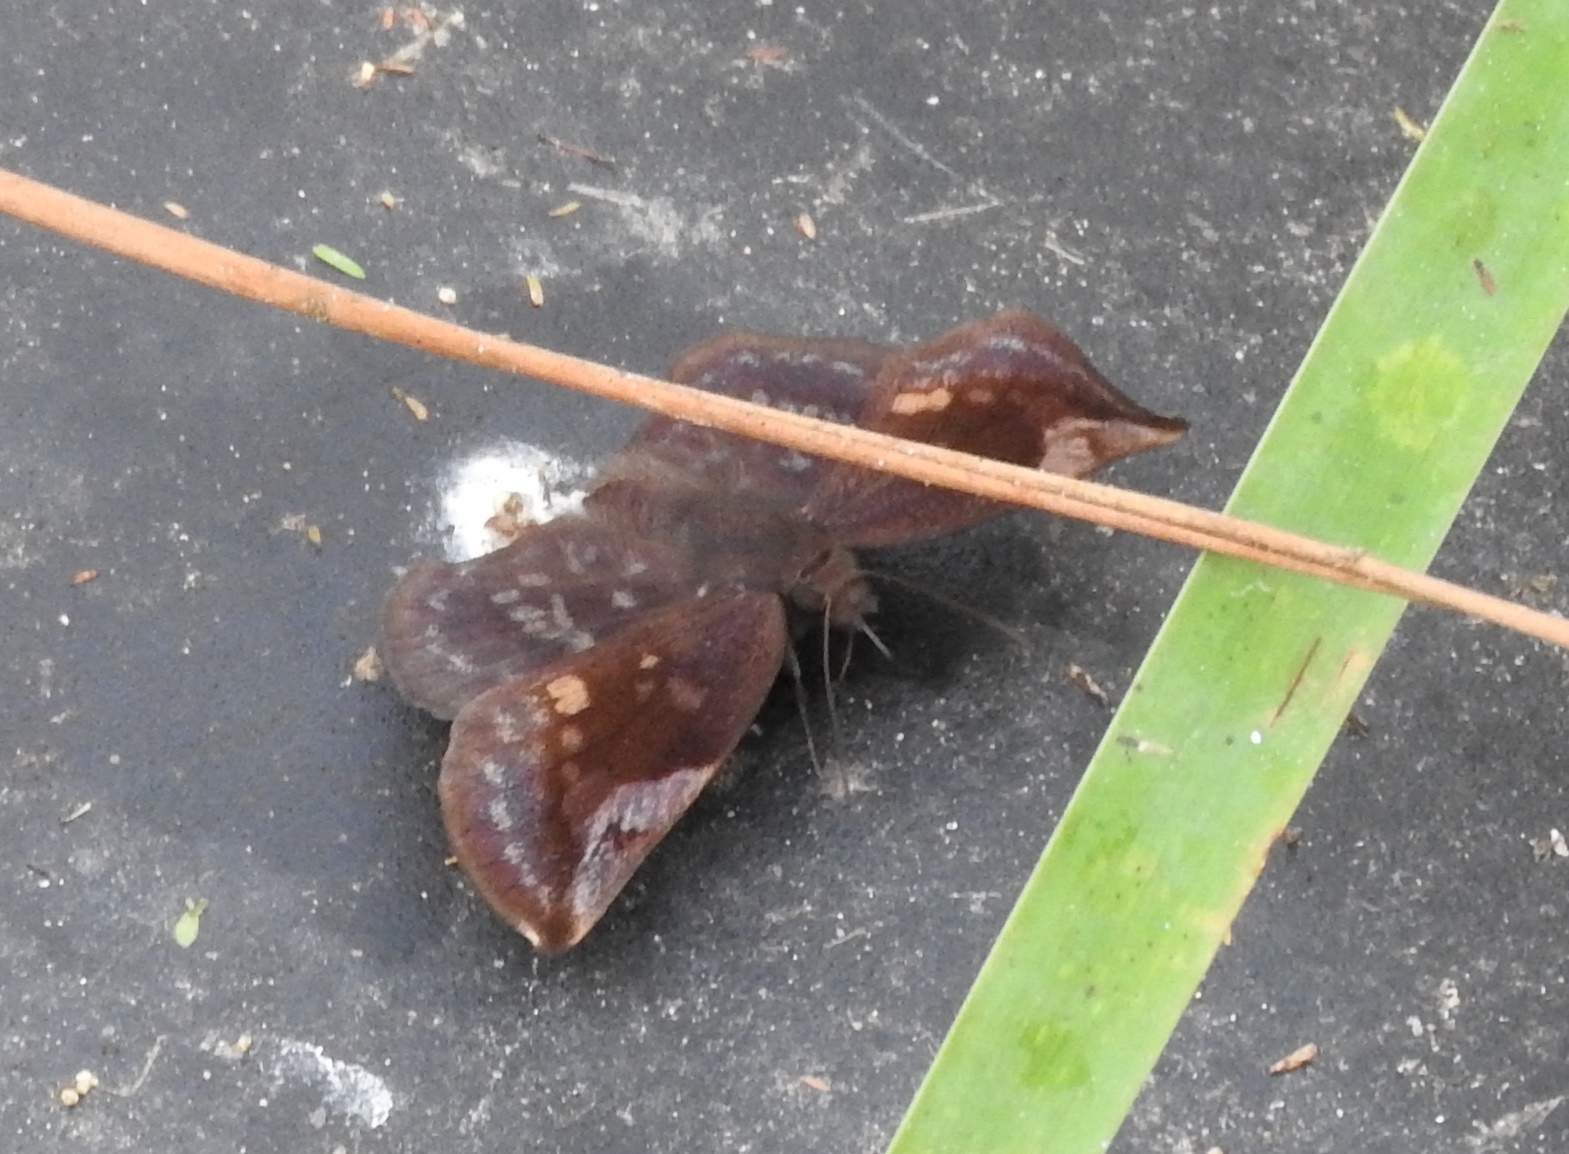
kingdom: Animalia
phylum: Arthropoda
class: Insecta
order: Lepidoptera
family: Hesperiidae
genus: Achlyodes
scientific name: Achlyodes
